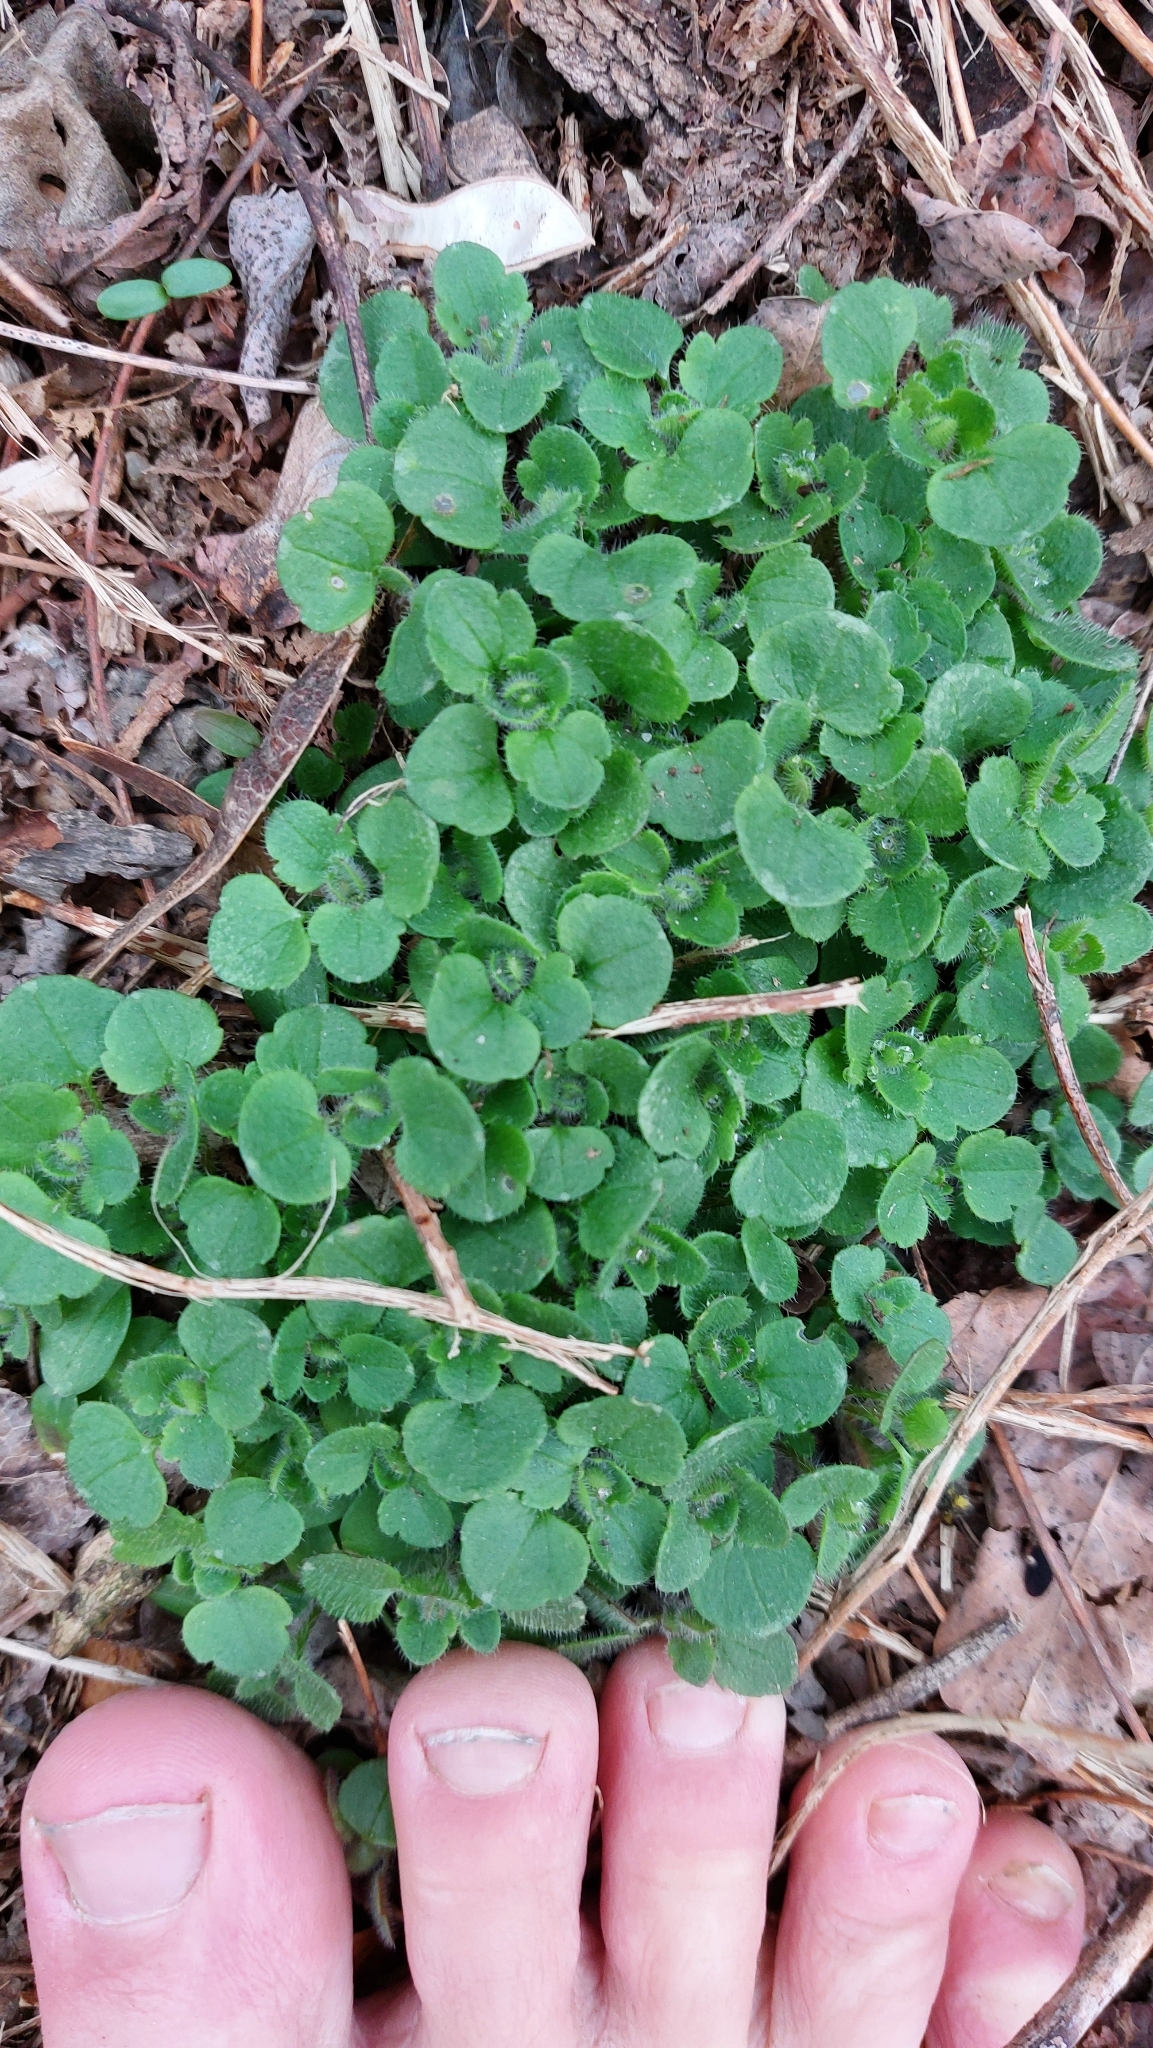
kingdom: Plantae
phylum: Tracheophyta
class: Magnoliopsida
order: Lamiales
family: Plantaginaceae
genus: Veronica
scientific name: Veronica
